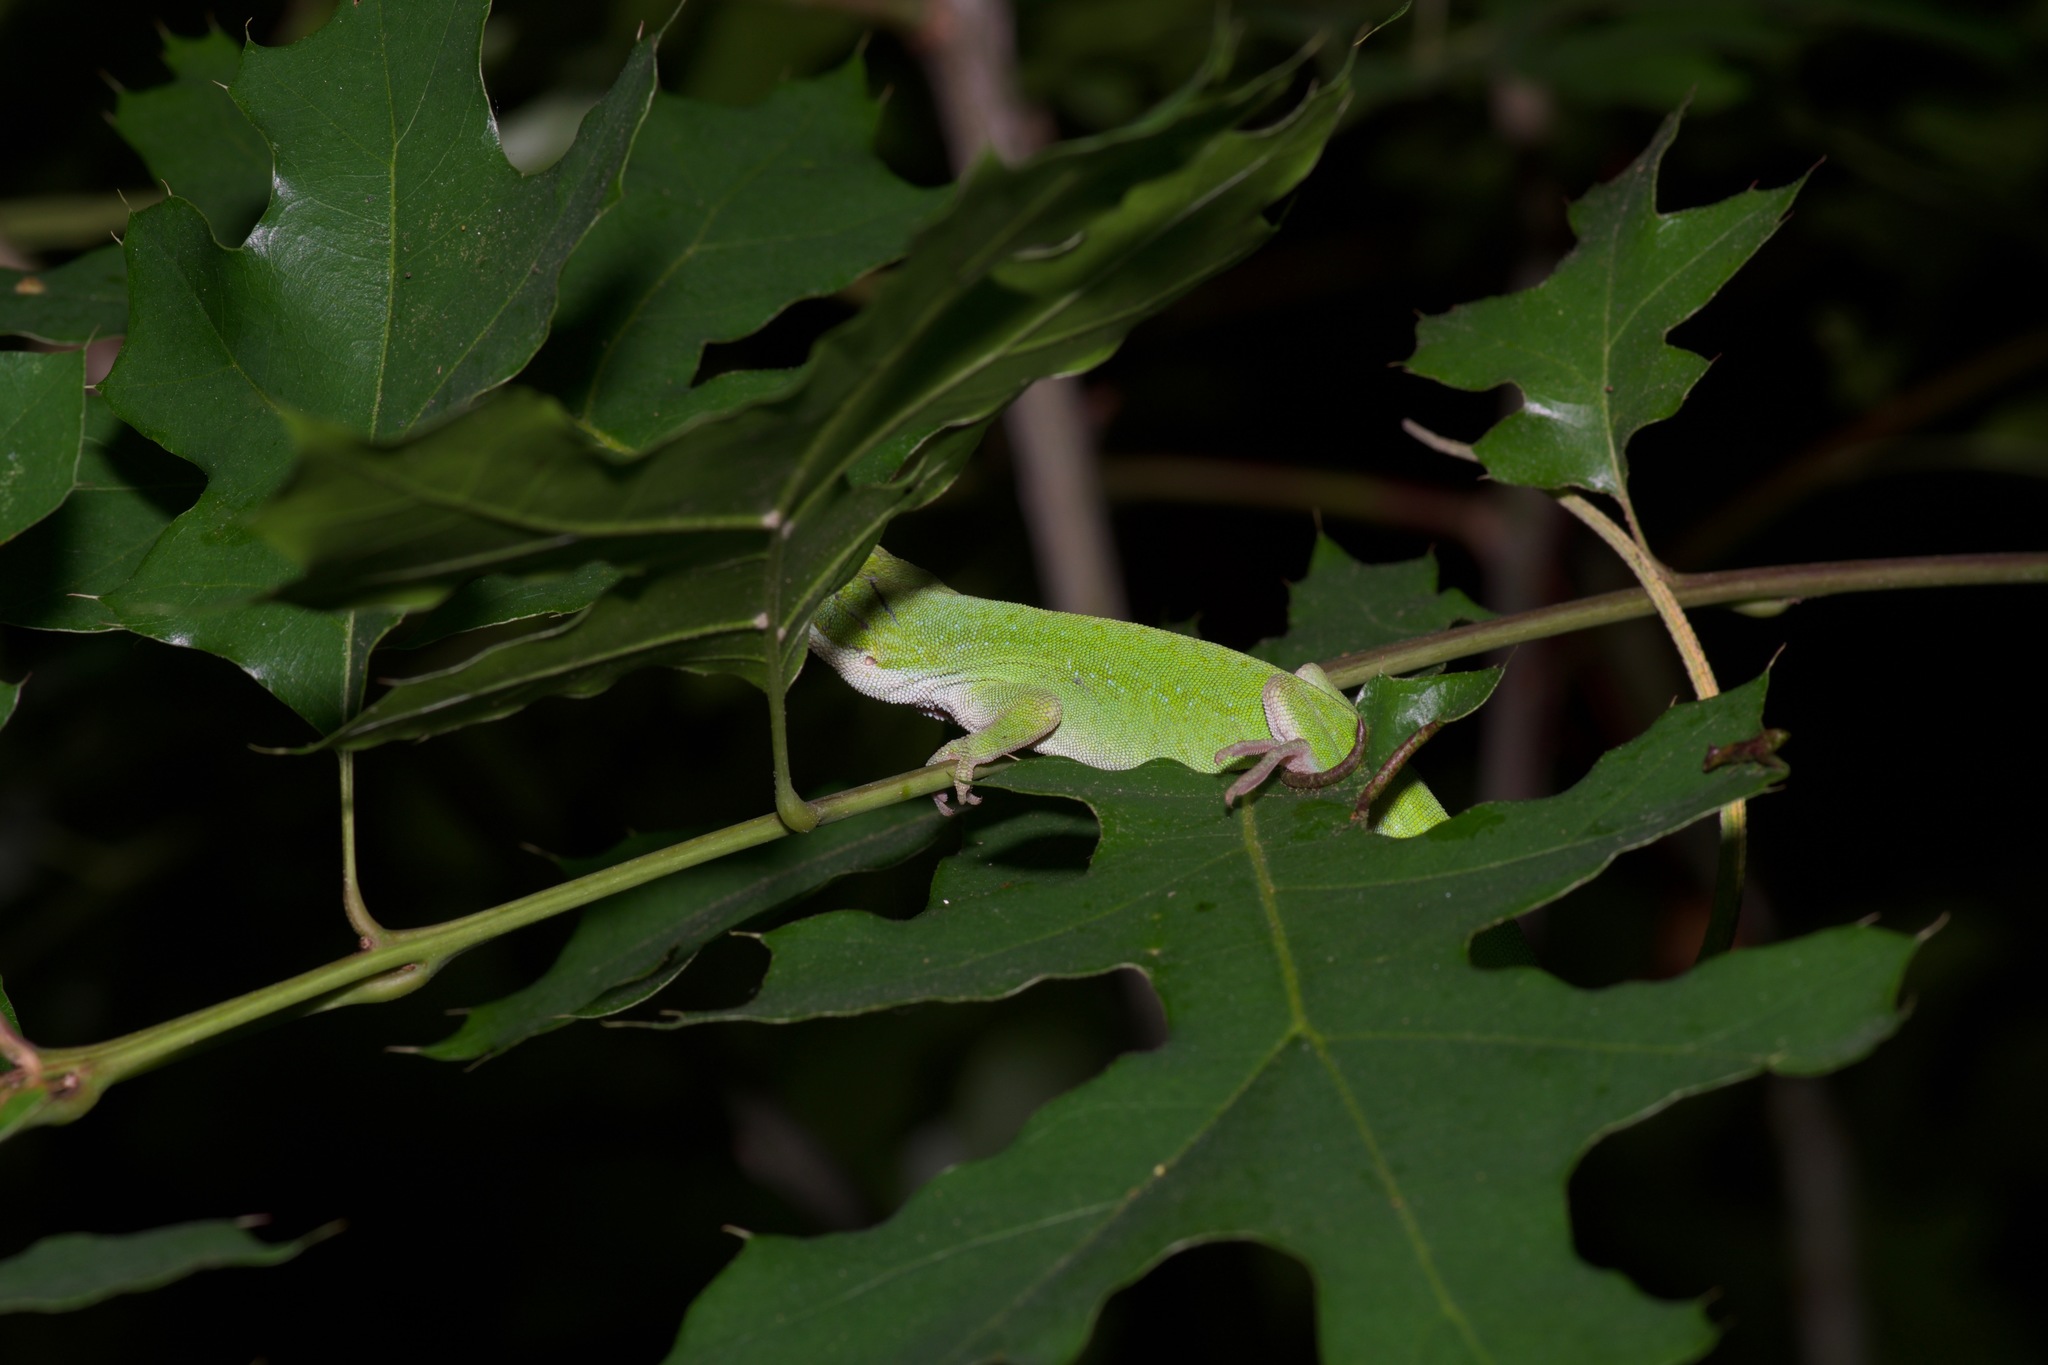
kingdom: Animalia
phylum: Chordata
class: Squamata
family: Dactyloidae
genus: Anolis
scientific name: Anolis carolinensis
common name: Green anole
